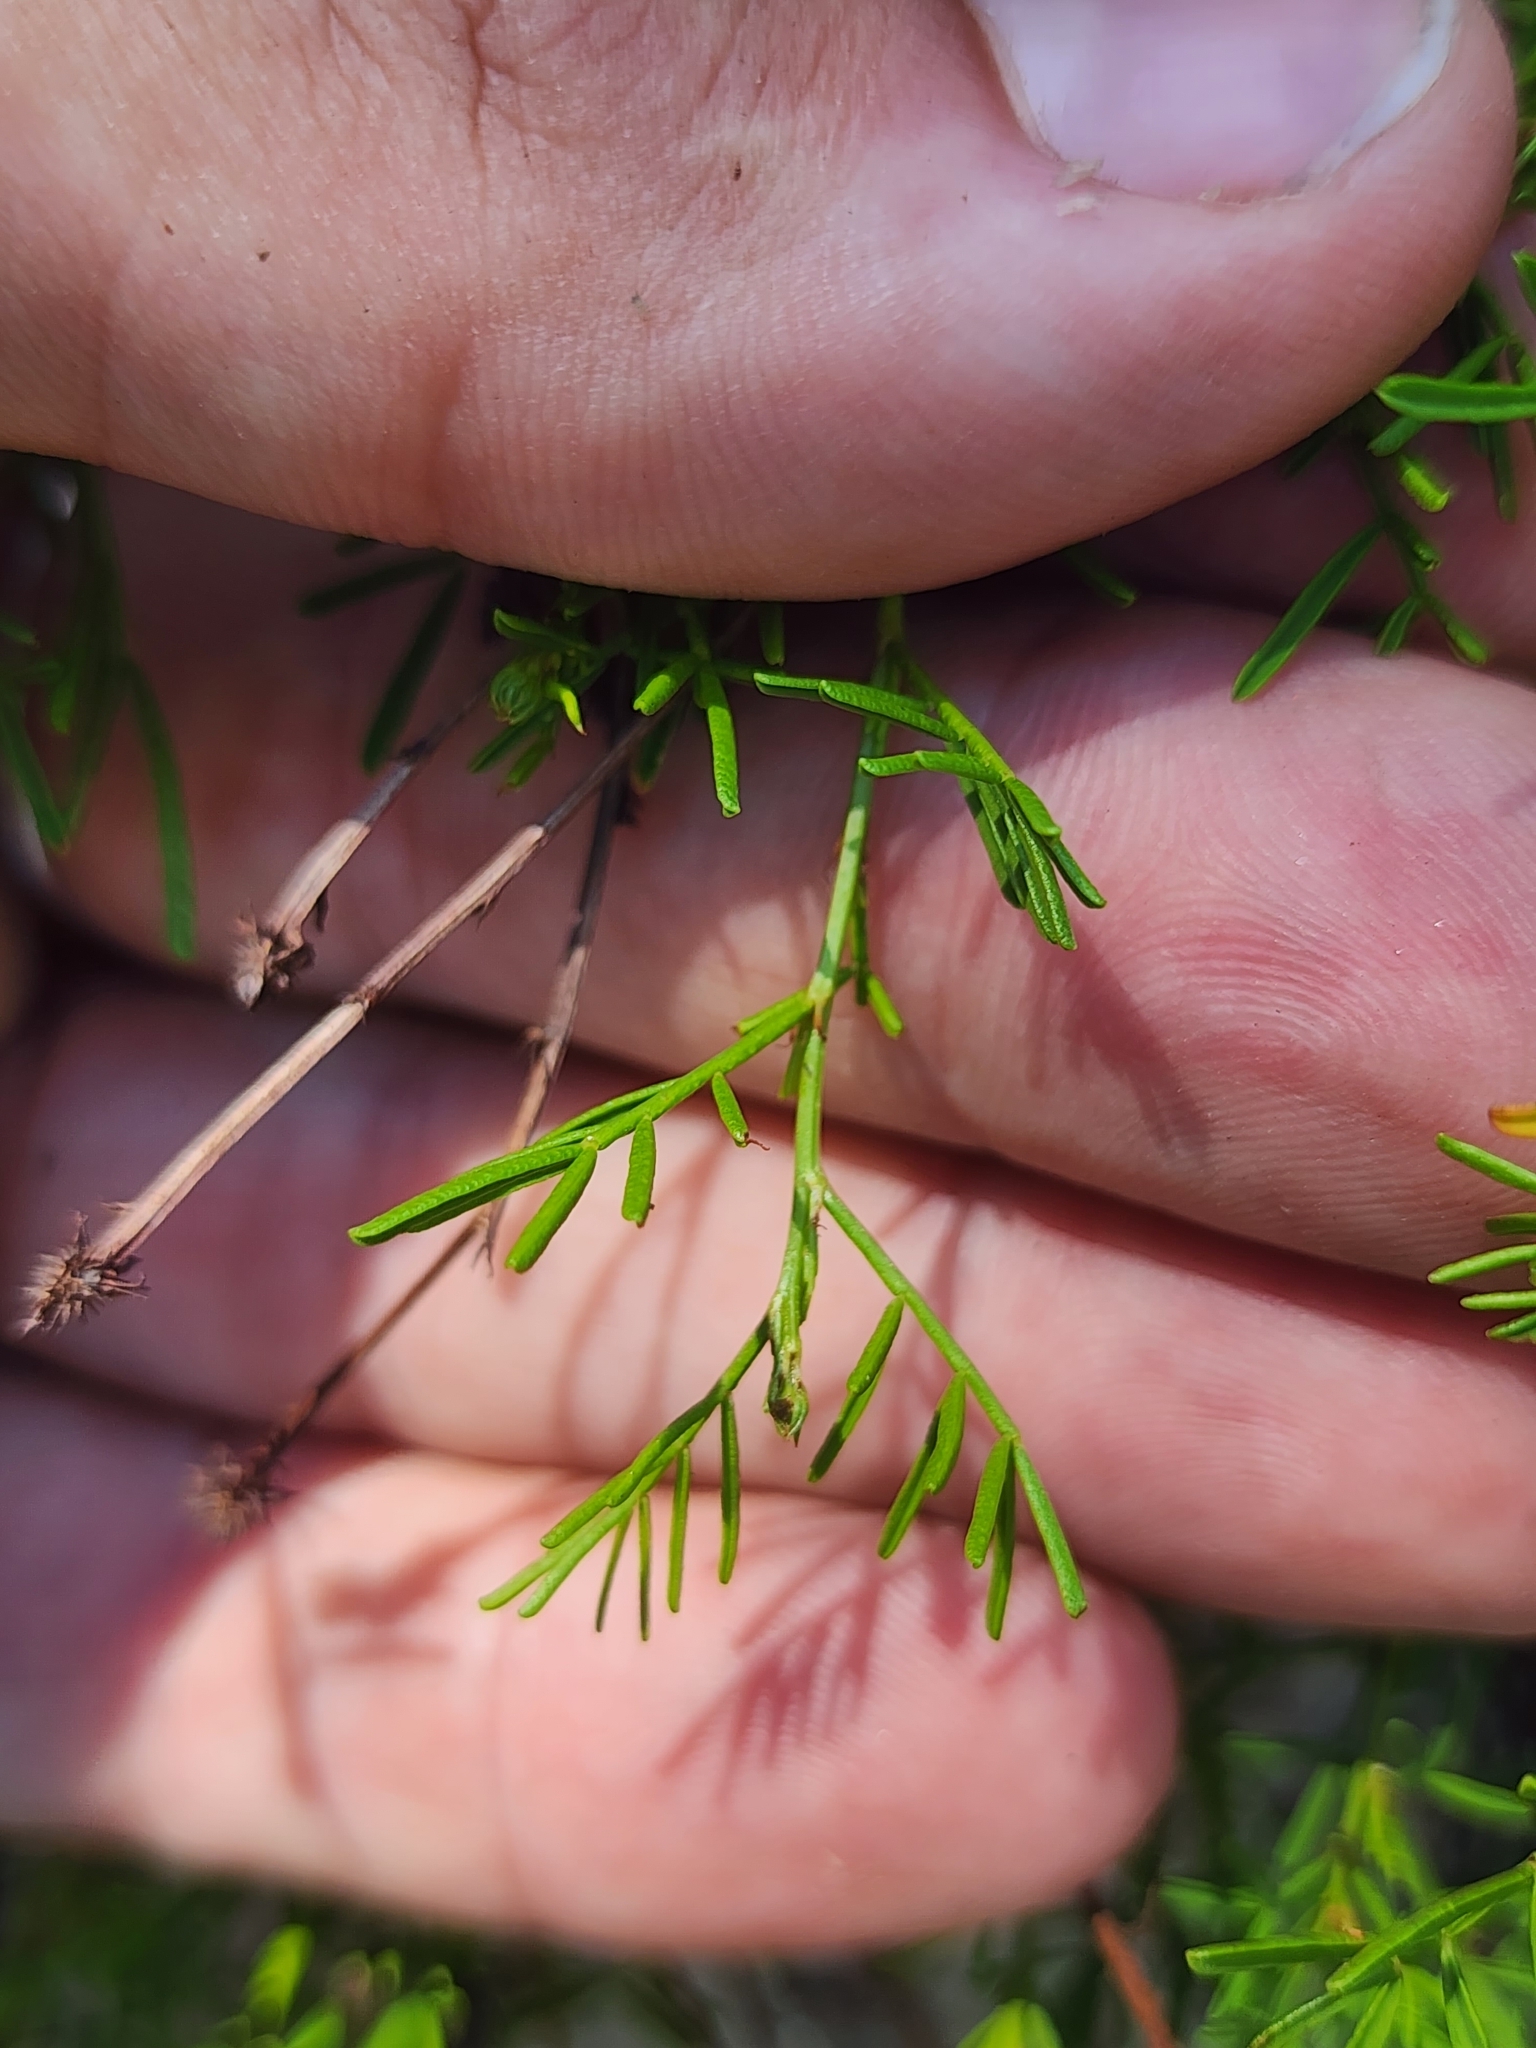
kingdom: Plantae
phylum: Tracheophyta
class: Magnoliopsida
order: Fabales
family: Fabaceae
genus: Dalea
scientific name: Dalea feayi
